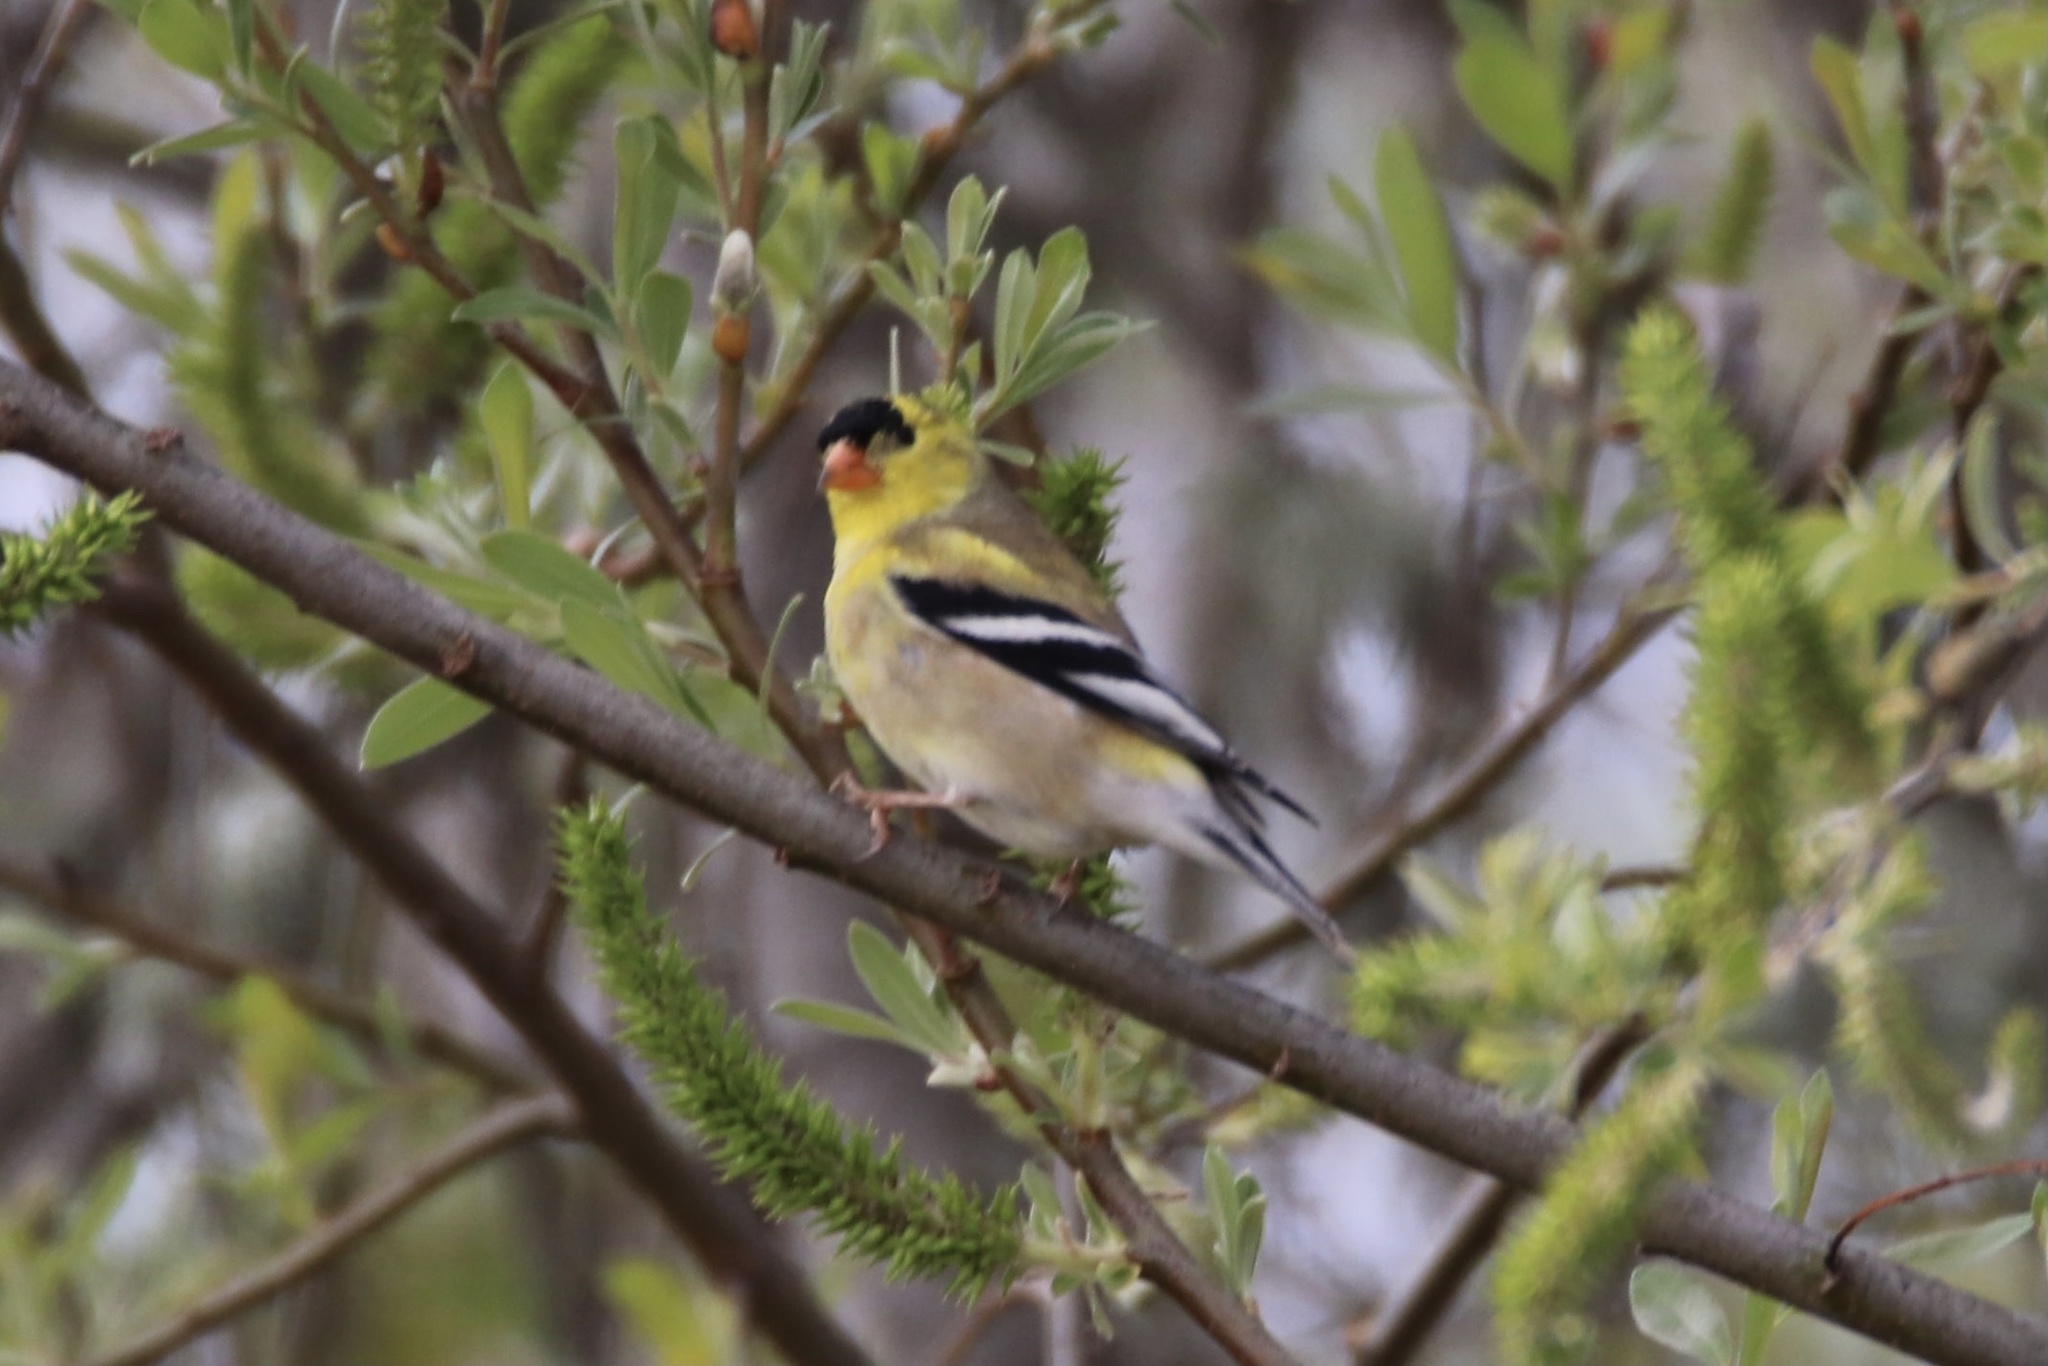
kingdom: Animalia
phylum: Chordata
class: Aves
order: Passeriformes
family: Fringillidae
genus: Spinus
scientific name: Spinus tristis
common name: American goldfinch
